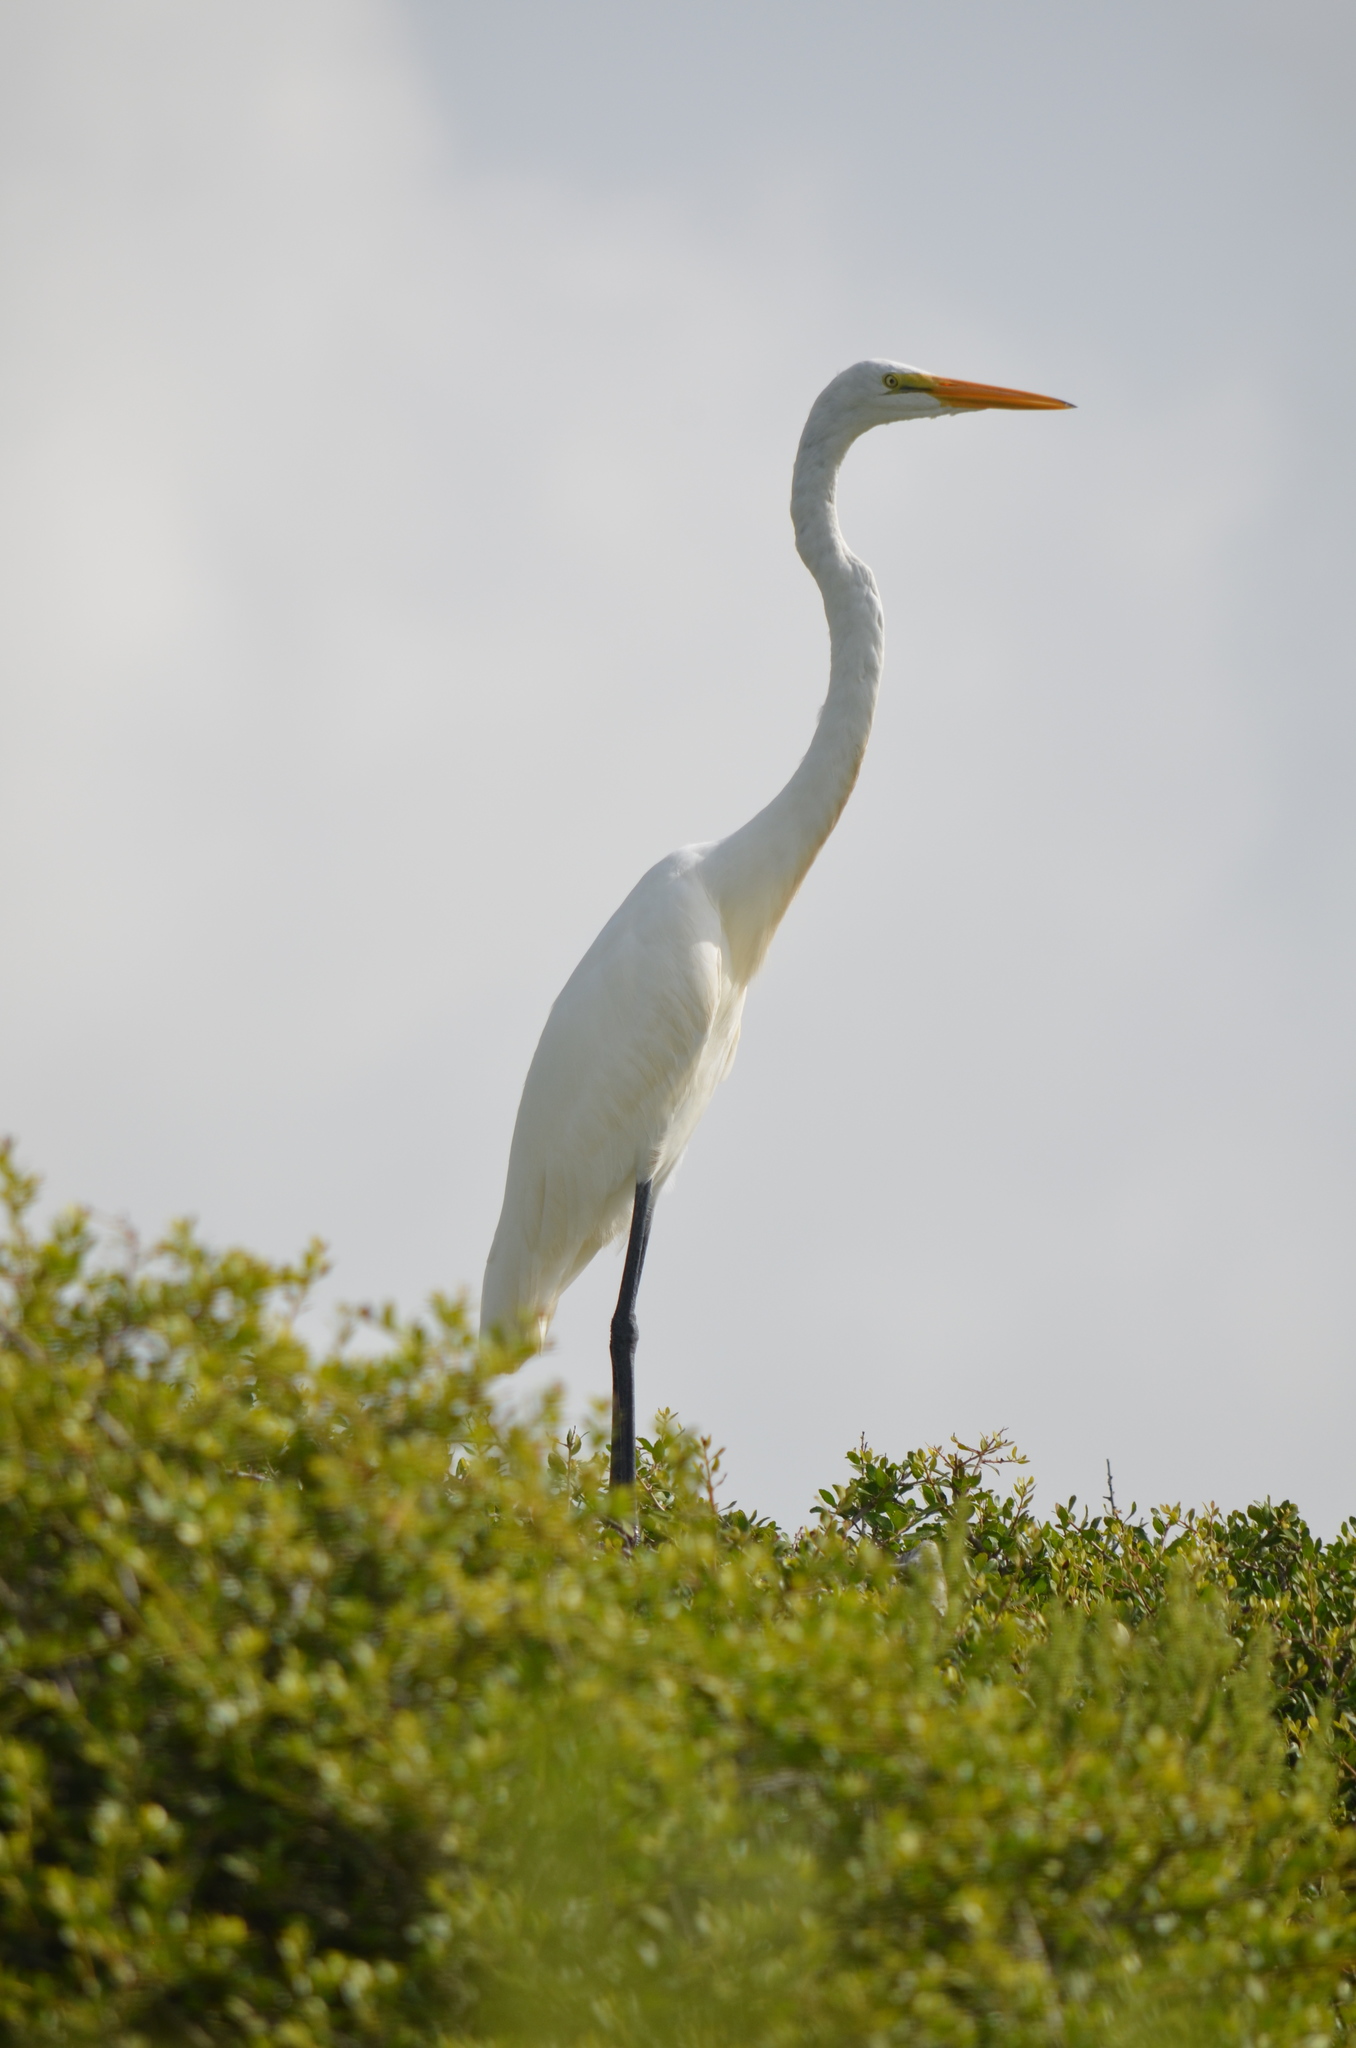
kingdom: Animalia
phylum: Chordata
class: Aves
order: Pelecaniformes
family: Ardeidae
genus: Ardea
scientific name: Ardea alba
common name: Great egret
